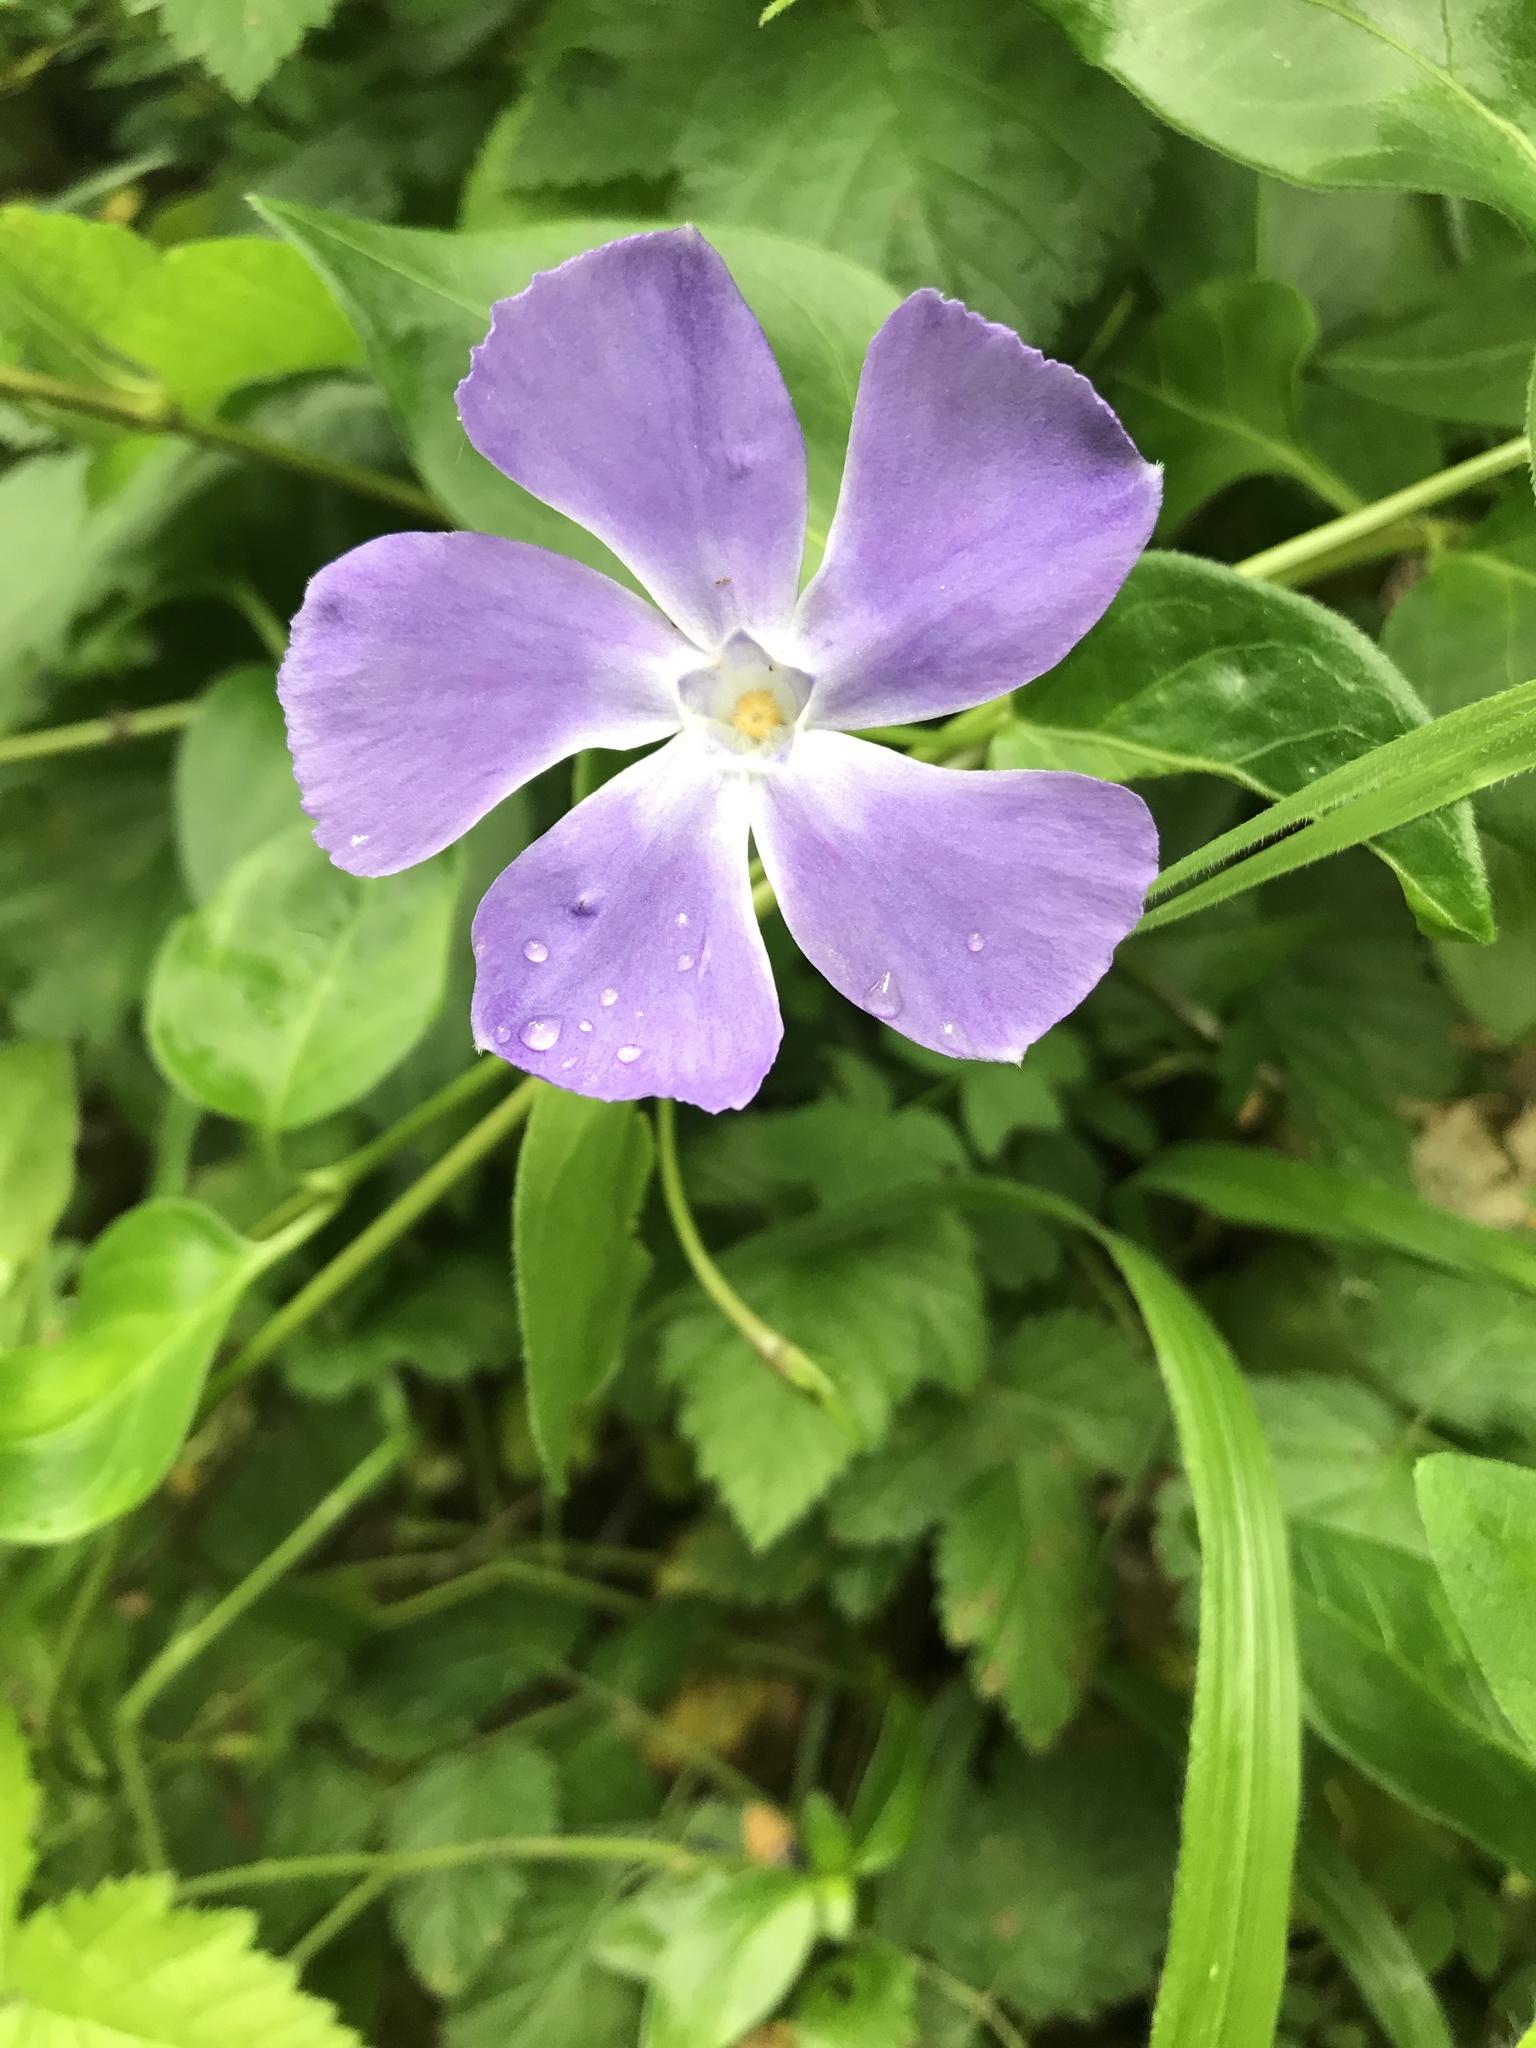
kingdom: Plantae
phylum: Tracheophyta
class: Magnoliopsida
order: Gentianales
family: Apocynaceae
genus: Vinca
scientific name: Vinca major
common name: Greater periwinkle
